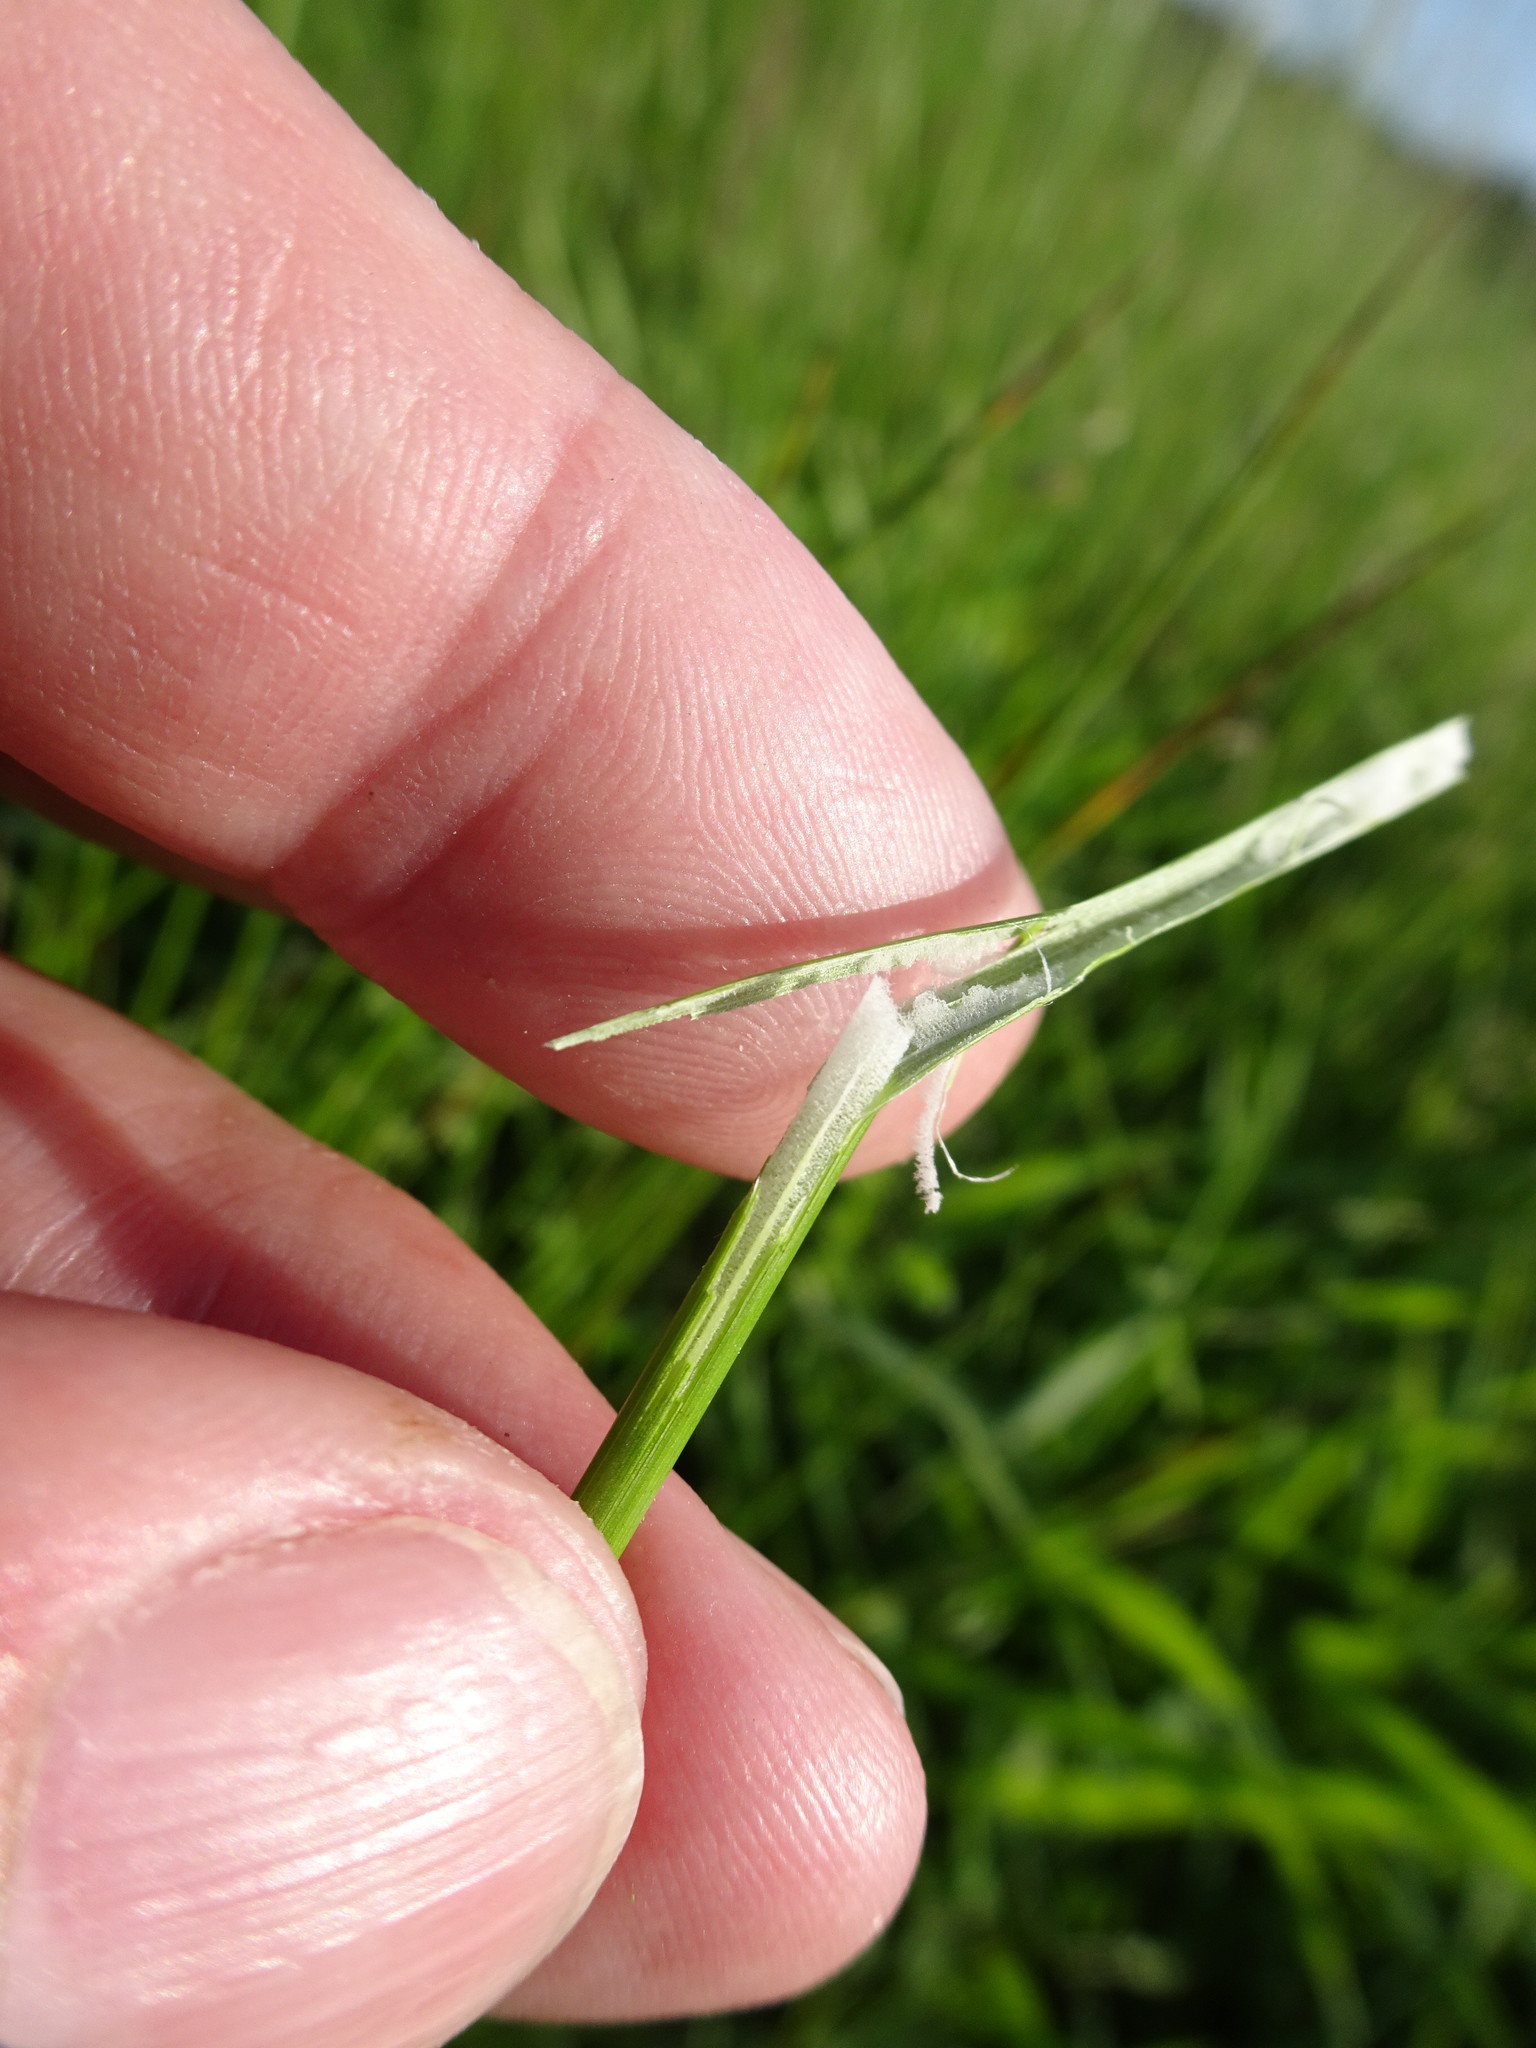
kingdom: Plantae
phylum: Tracheophyta
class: Liliopsida
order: Poales
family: Juncaceae
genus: Juncus
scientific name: Juncus effusus
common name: Soft rush
